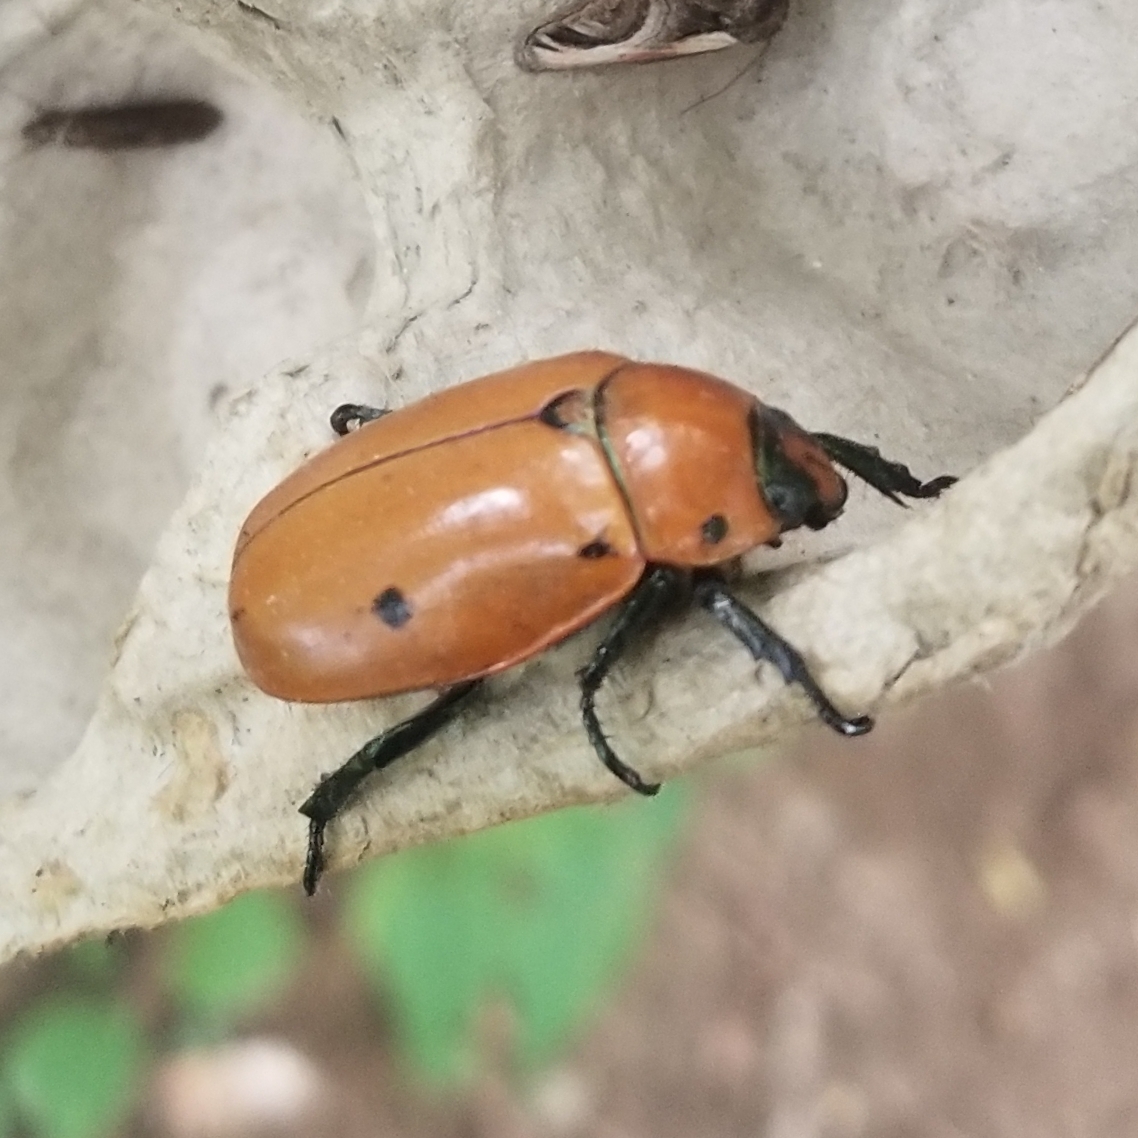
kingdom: Animalia
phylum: Arthropoda
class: Insecta
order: Coleoptera
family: Scarabaeidae
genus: Pelidnota
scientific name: Pelidnota punctata
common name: Grapevine beetle
